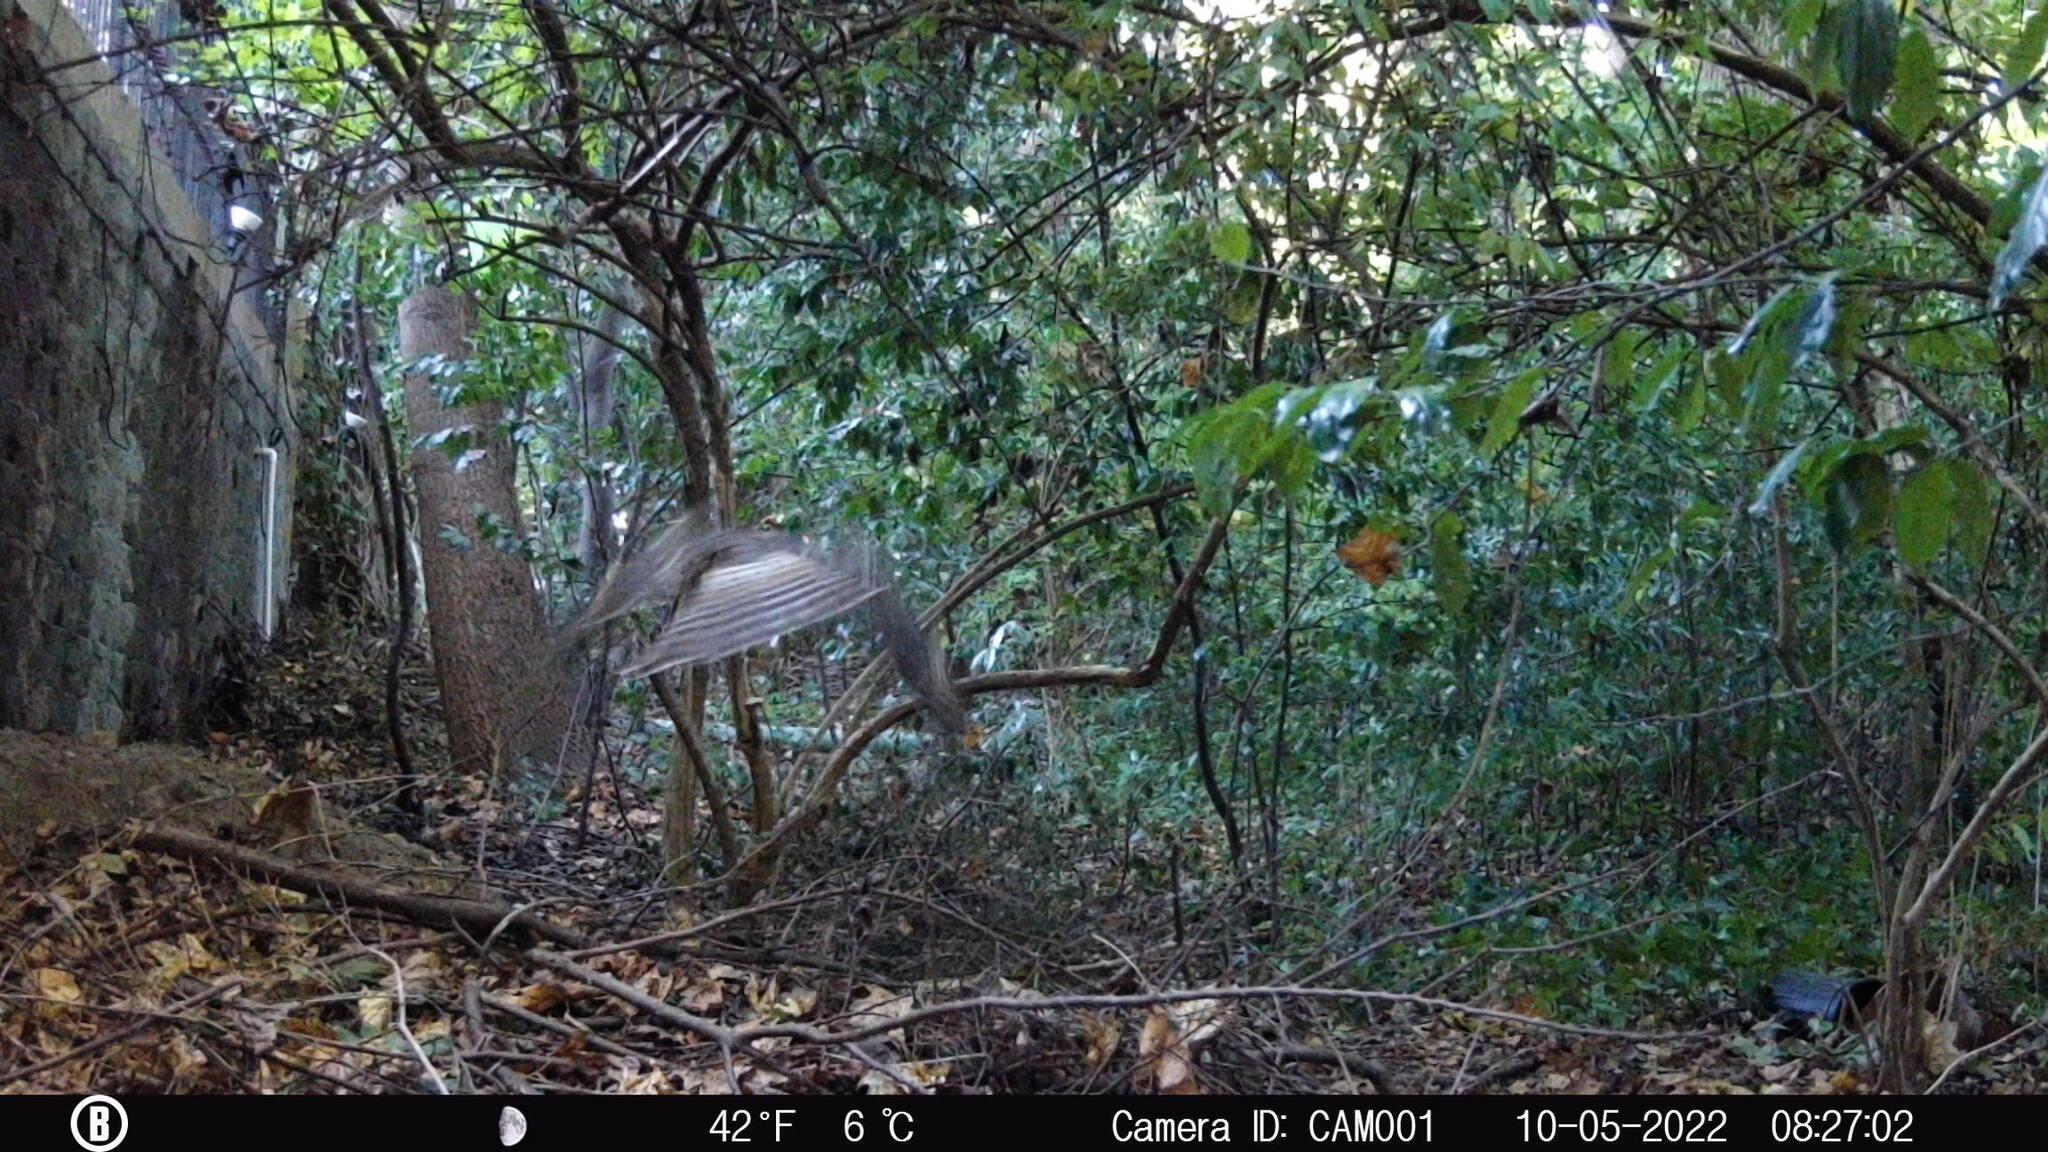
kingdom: Animalia
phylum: Chordata
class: Aves
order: Accipitriformes
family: Accipitridae
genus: Buteo
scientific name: Buteo lineatus
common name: Red-shouldered hawk
